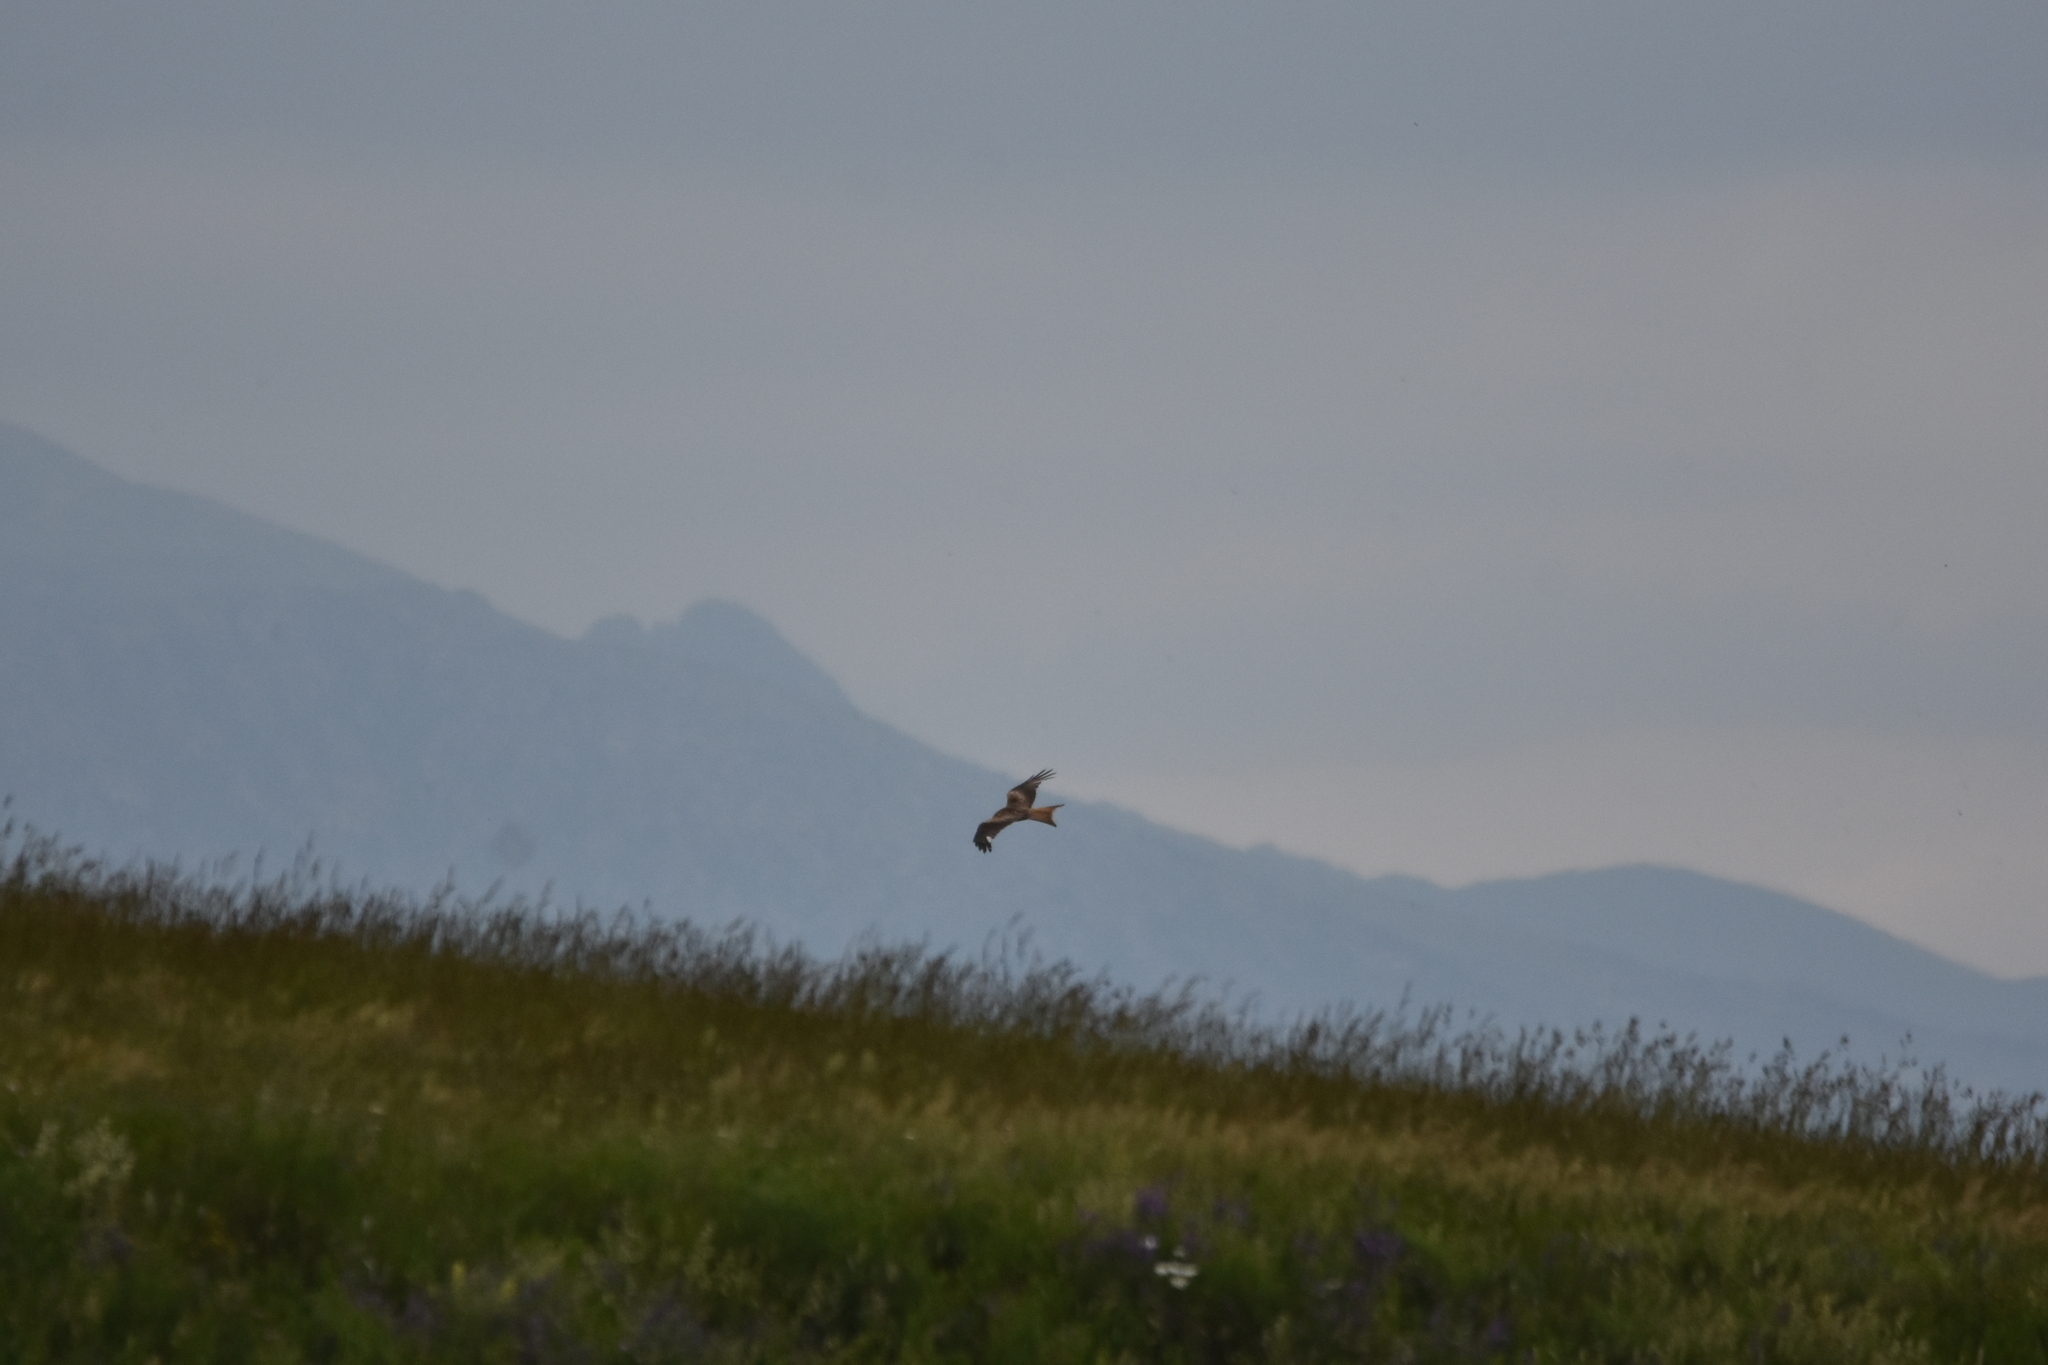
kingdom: Animalia
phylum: Chordata
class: Aves
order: Accipitriformes
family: Accipitridae
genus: Milvus
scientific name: Milvus milvus
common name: Red kite
